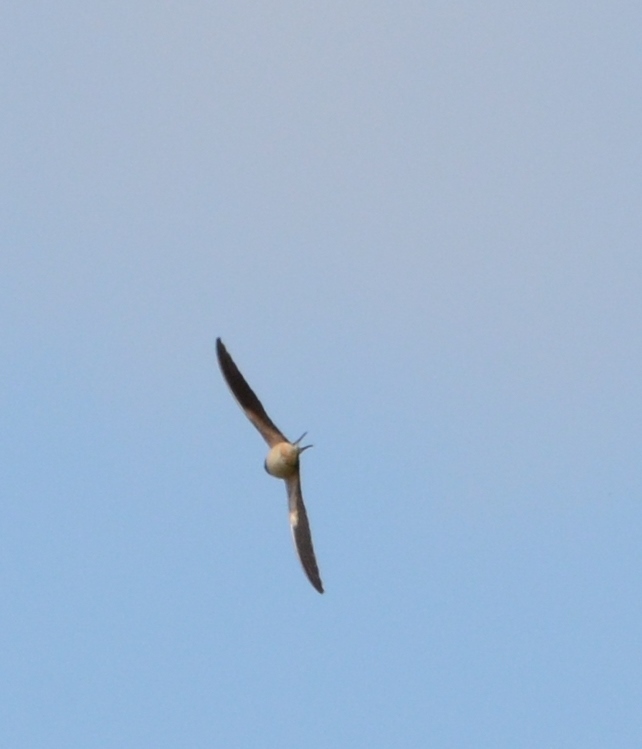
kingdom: Animalia
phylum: Chordata
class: Aves
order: Passeriformes
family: Hirundinidae
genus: Hirundo
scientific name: Hirundo rustica
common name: Barn swallow
